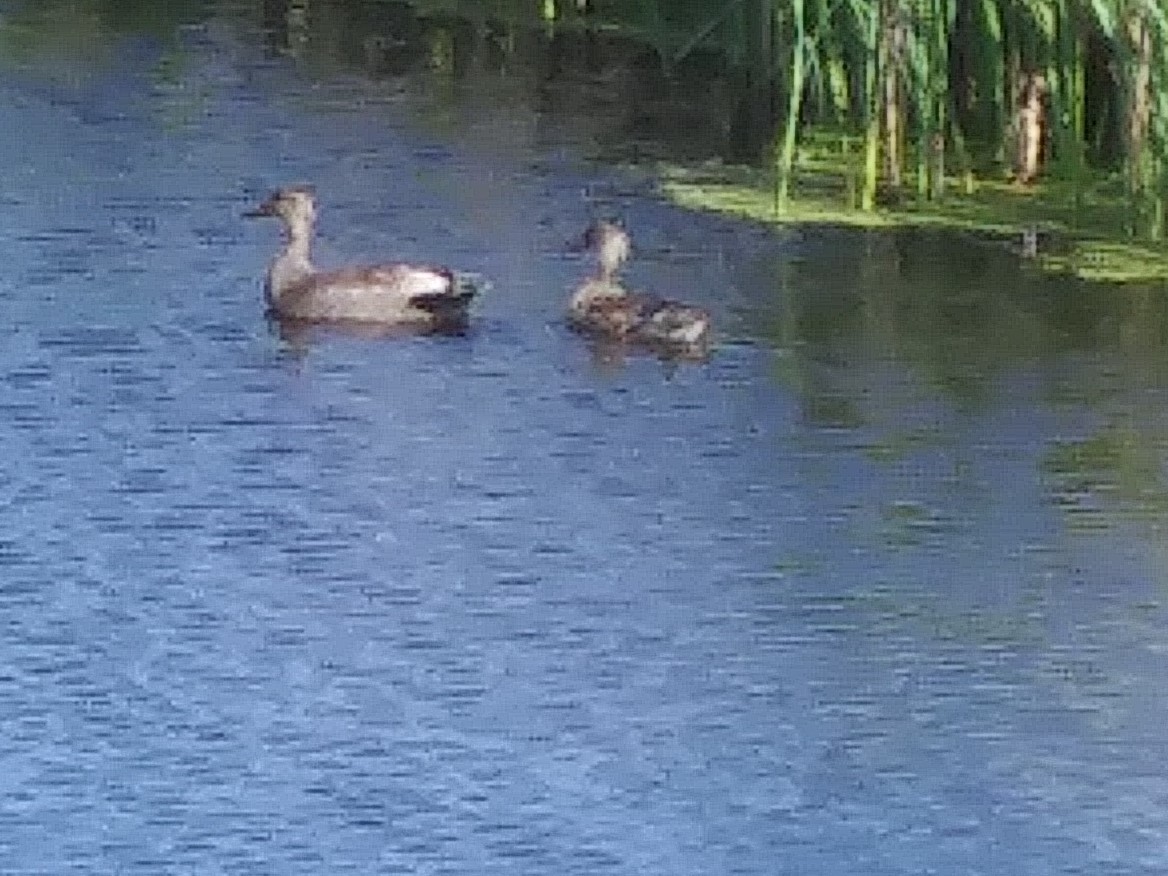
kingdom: Animalia
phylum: Chordata
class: Aves
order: Anseriformes
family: Anatidae
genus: Mareca
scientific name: Mareca strepera
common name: Gadwall
